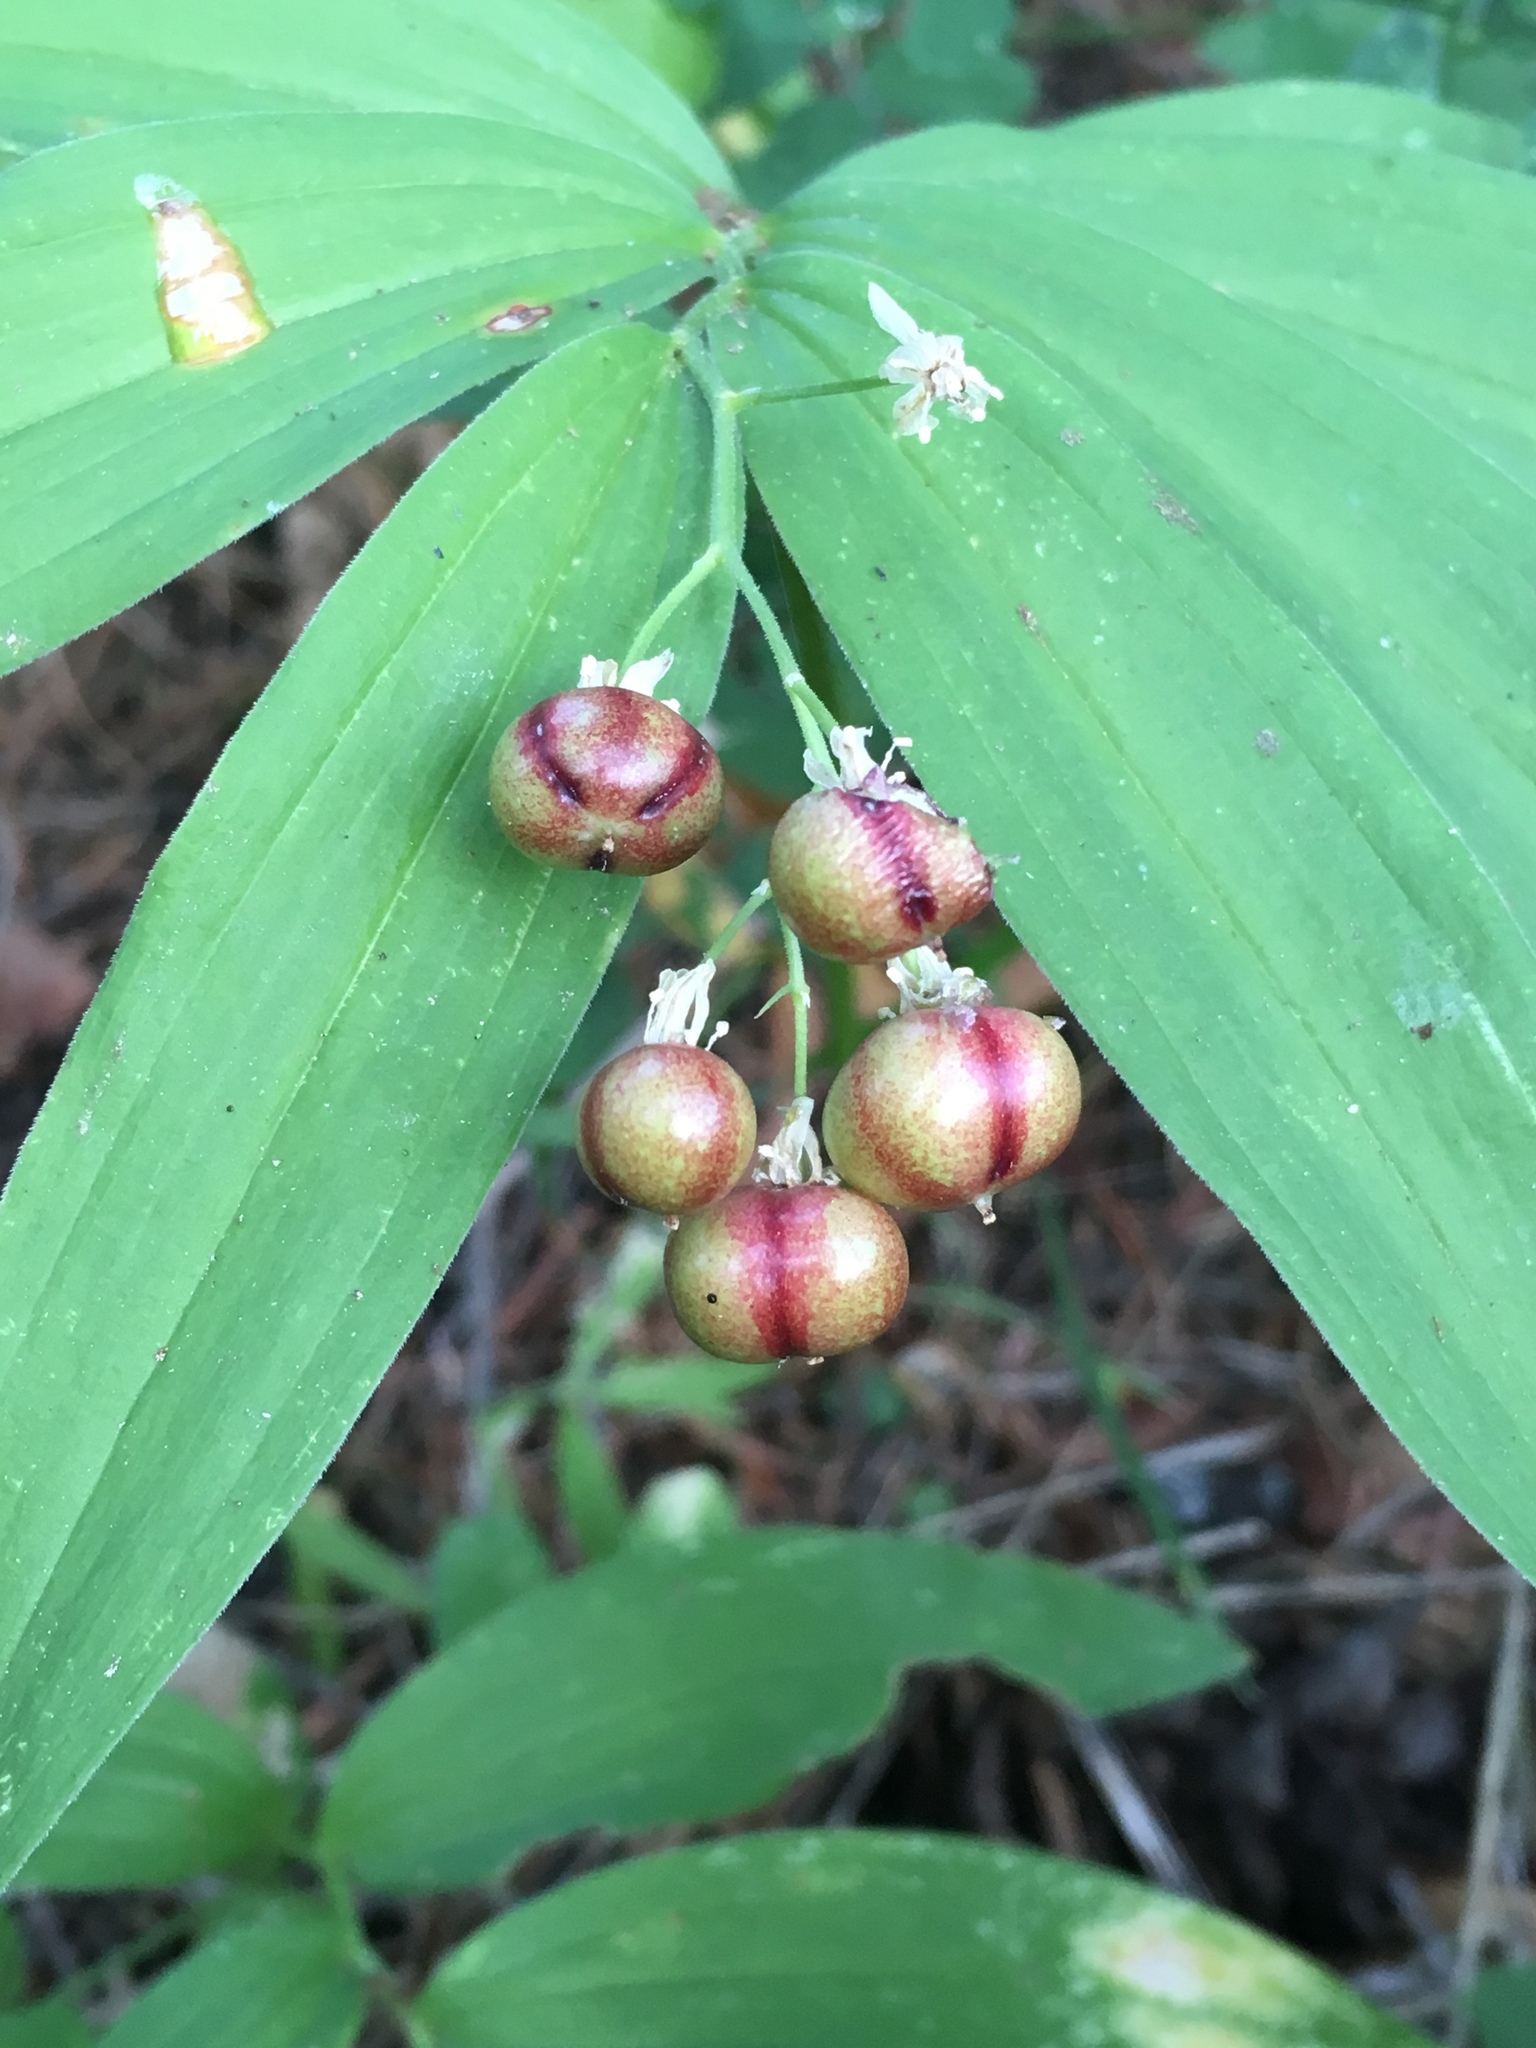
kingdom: Plantae
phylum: Tracheophyta
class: Liliopsida
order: Asparagales
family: Asparagaceae
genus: Maianthemum
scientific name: Maianthemum stellatum
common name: Little false solomon's seal
